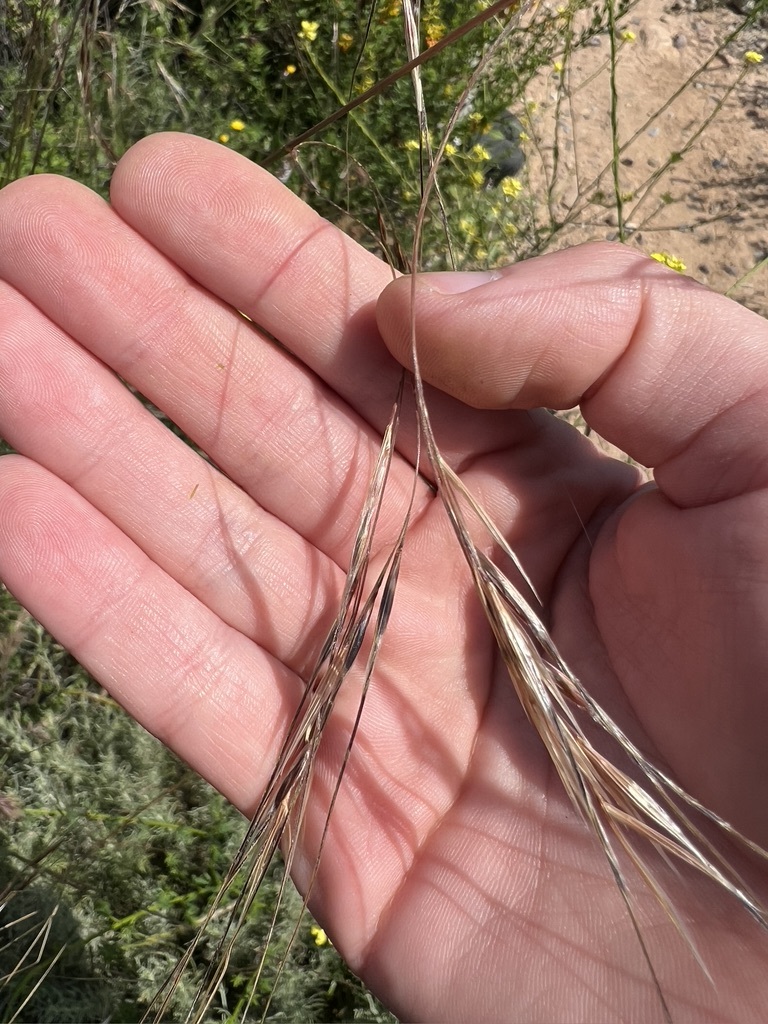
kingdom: Plantae
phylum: Tracheophyta
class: Liliopsida
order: Poales
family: Poaceae
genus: Nassella
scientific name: Nassella pulchra
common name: Purple needlegrass
